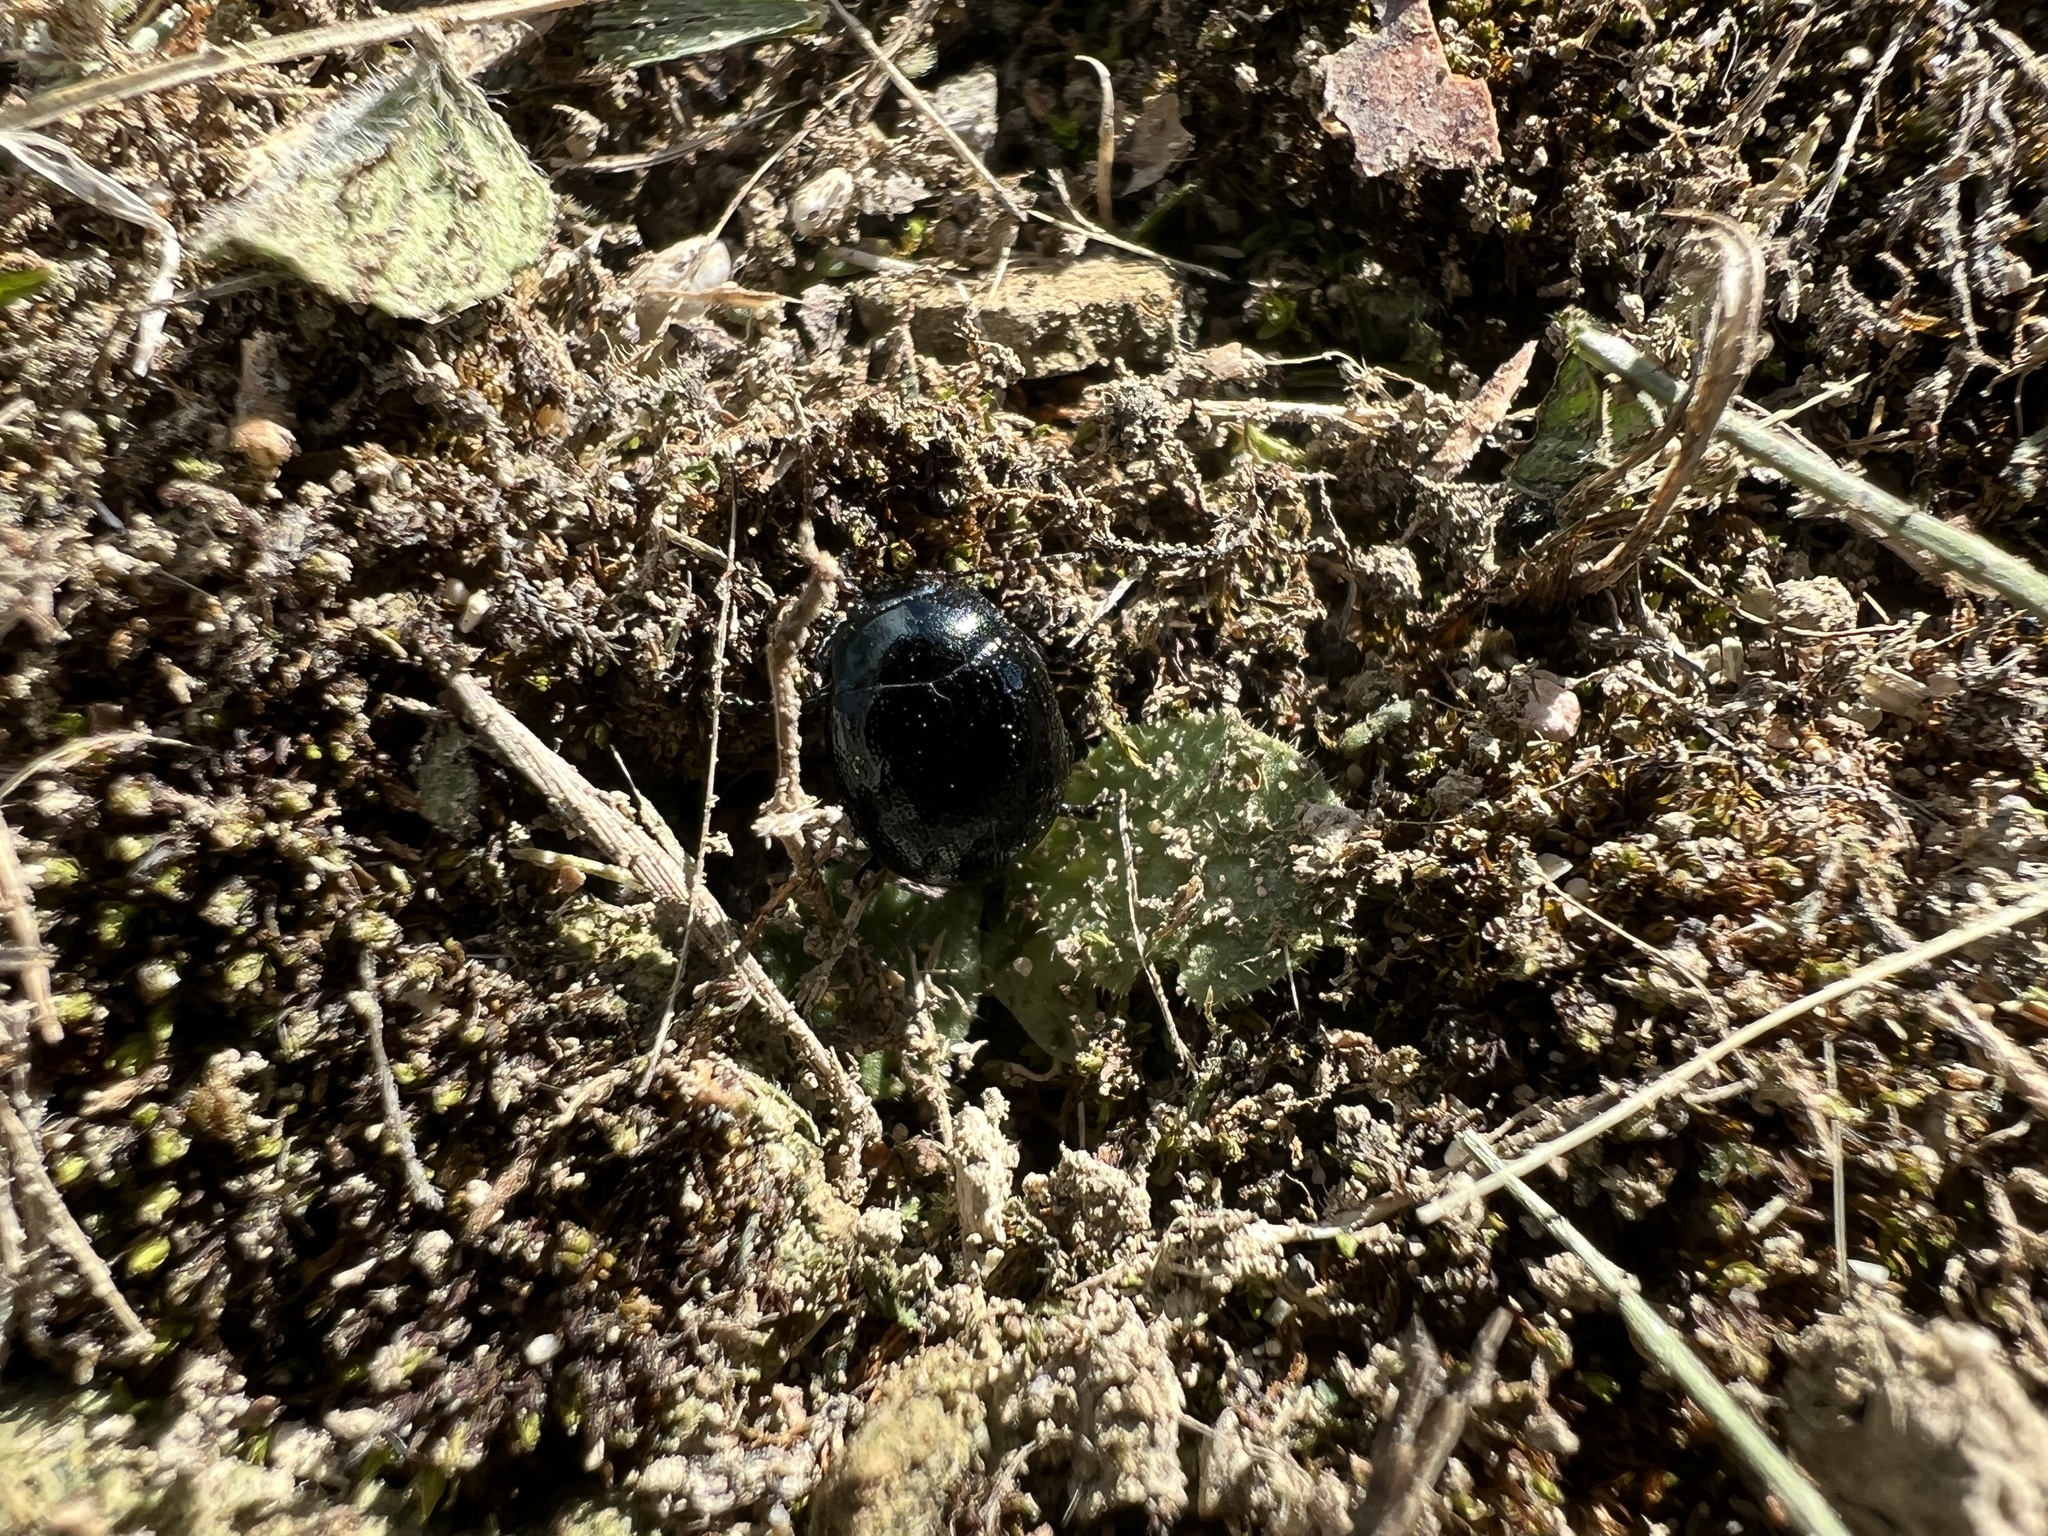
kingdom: Animalia
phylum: Arthropoda
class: Insecta
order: Coleoptera
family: Chrysomelidae
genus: Chrysolina
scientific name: Chrysolina haemoptera
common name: Plantain leaf beetle
